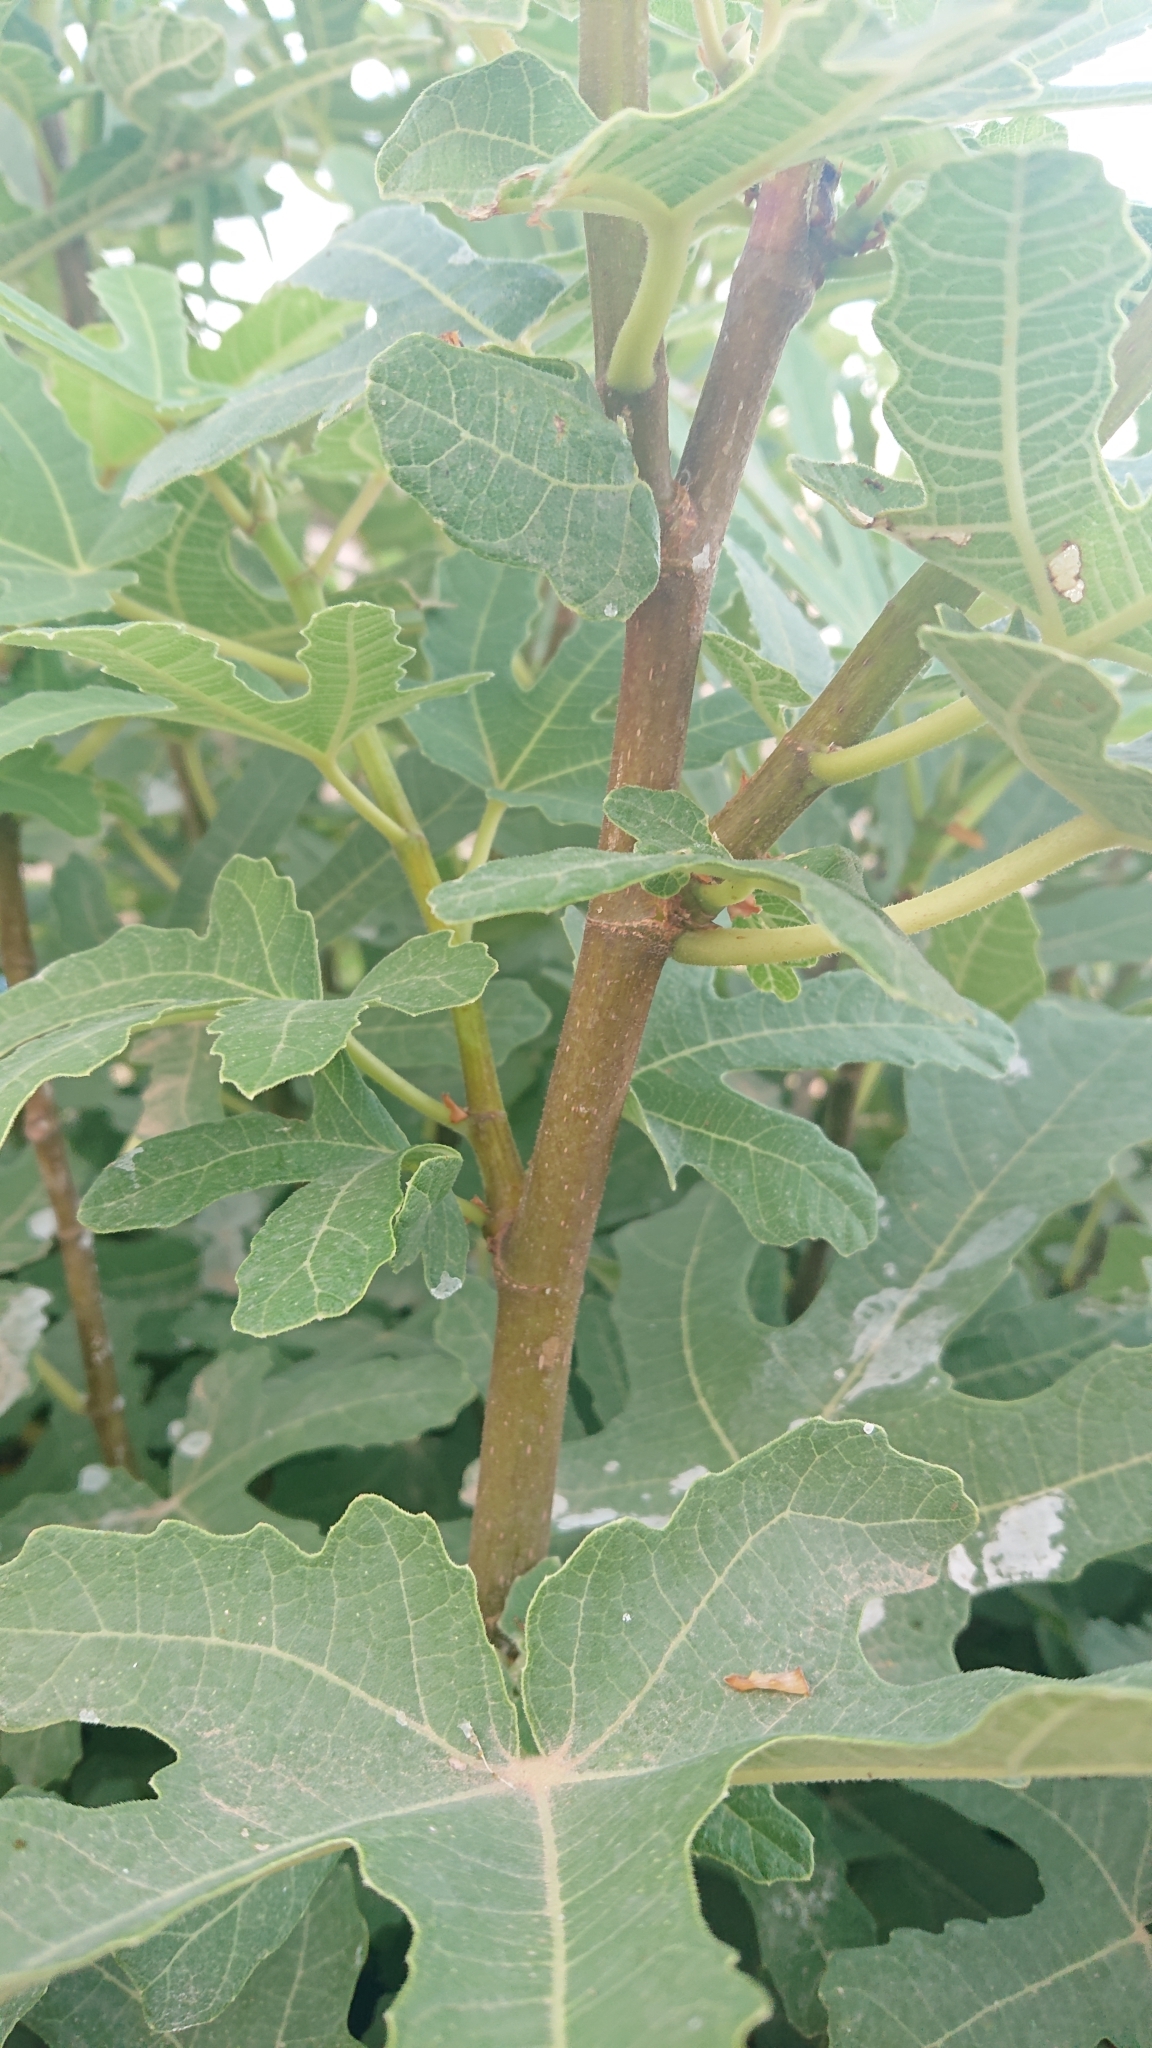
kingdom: Plantae
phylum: Tracheophyta
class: Magnoliopsida
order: Rosales
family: Moraceae
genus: Ficus
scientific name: Ficus carica
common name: Fig
